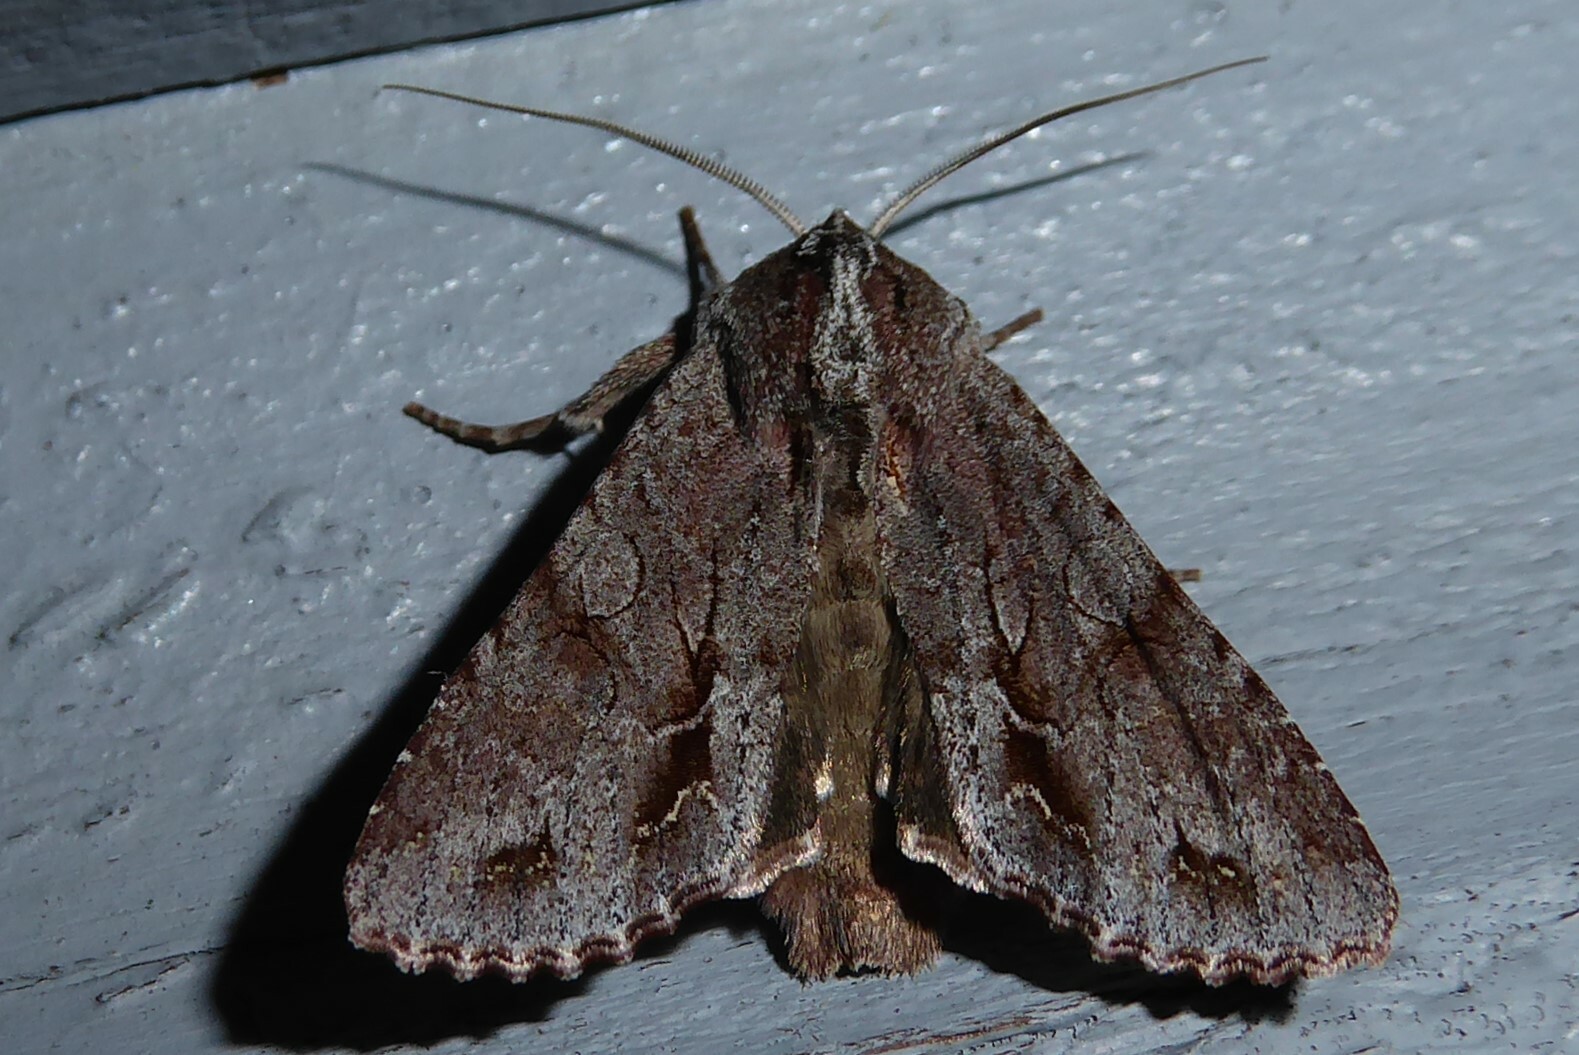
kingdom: Animalia
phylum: Arthropoda
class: Insecta
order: Lepidoptera
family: Noctuidae
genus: Ichneutica
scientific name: Ichneutica
